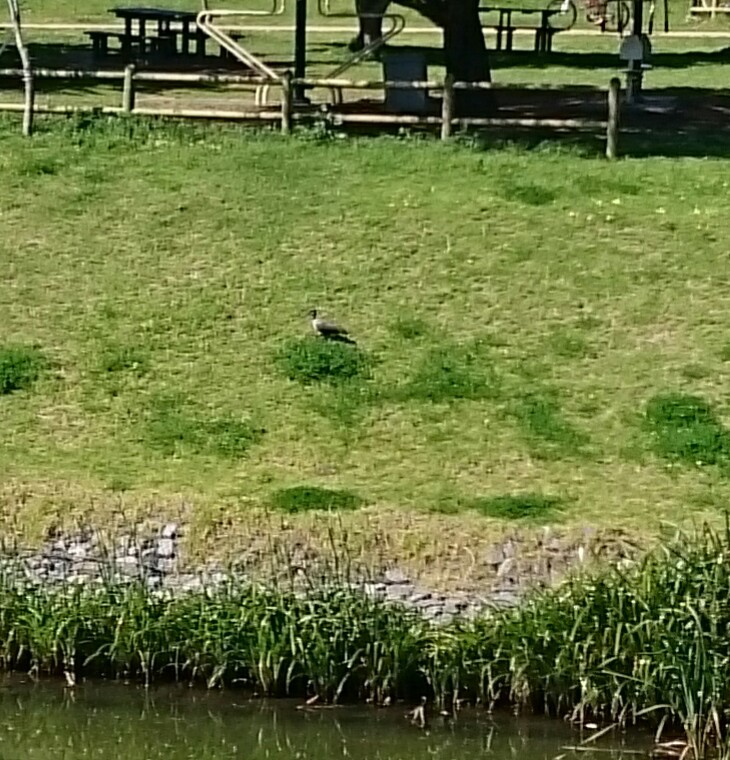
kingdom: Animalia
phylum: Chordata
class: Aves
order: Pelecaniformes
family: Threskiornithidae
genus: Bostrychia
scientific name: Bostrychia hagedash
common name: Hadada ibis
